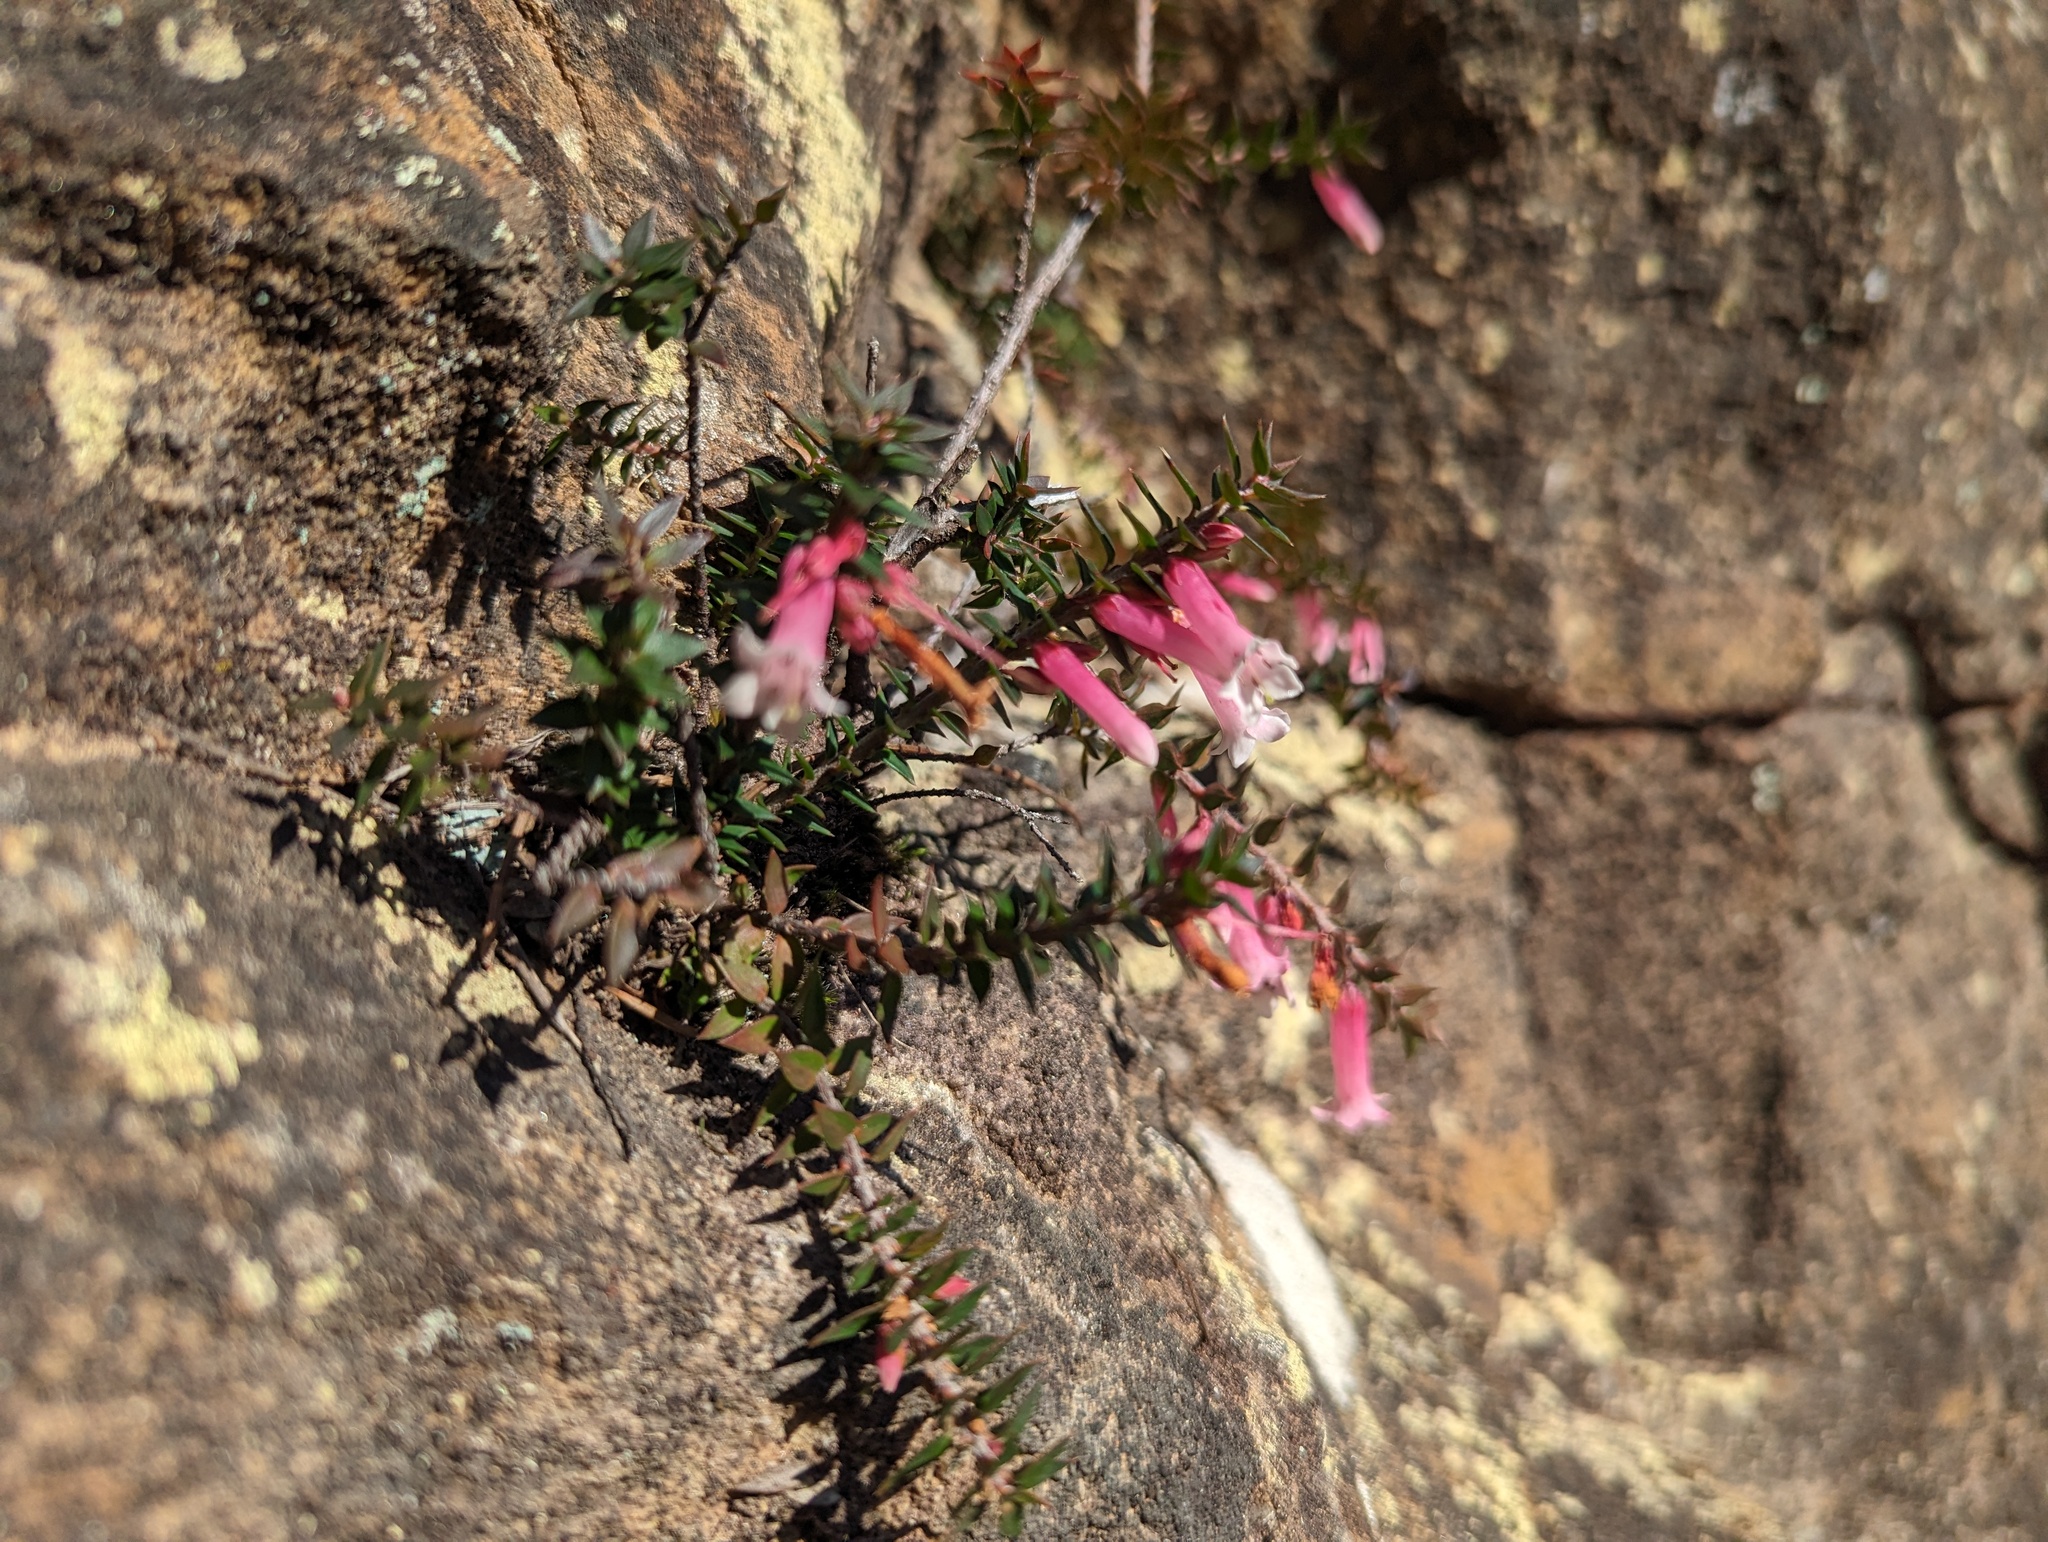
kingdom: Plantae
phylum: Tracheophyta
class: Magnoliopsida
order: Ericales
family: Ericaceae
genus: Epacris
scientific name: Epacris reclinata
